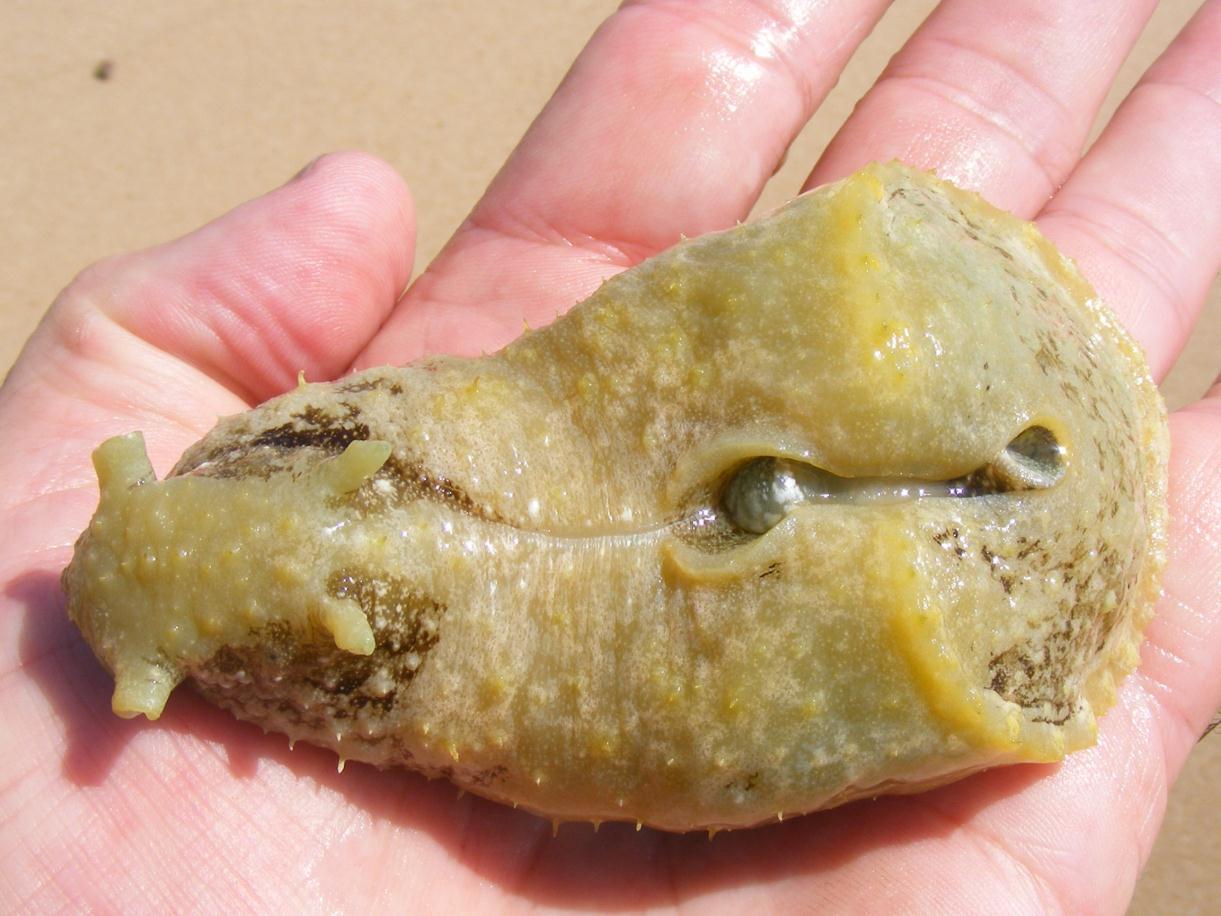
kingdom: Animalia
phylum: Mollusca
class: Gastropoda
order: Aplysiida
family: Aplysiidae
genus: Dolabella
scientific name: Dolabella auricularia
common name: Blunt-end seahare
